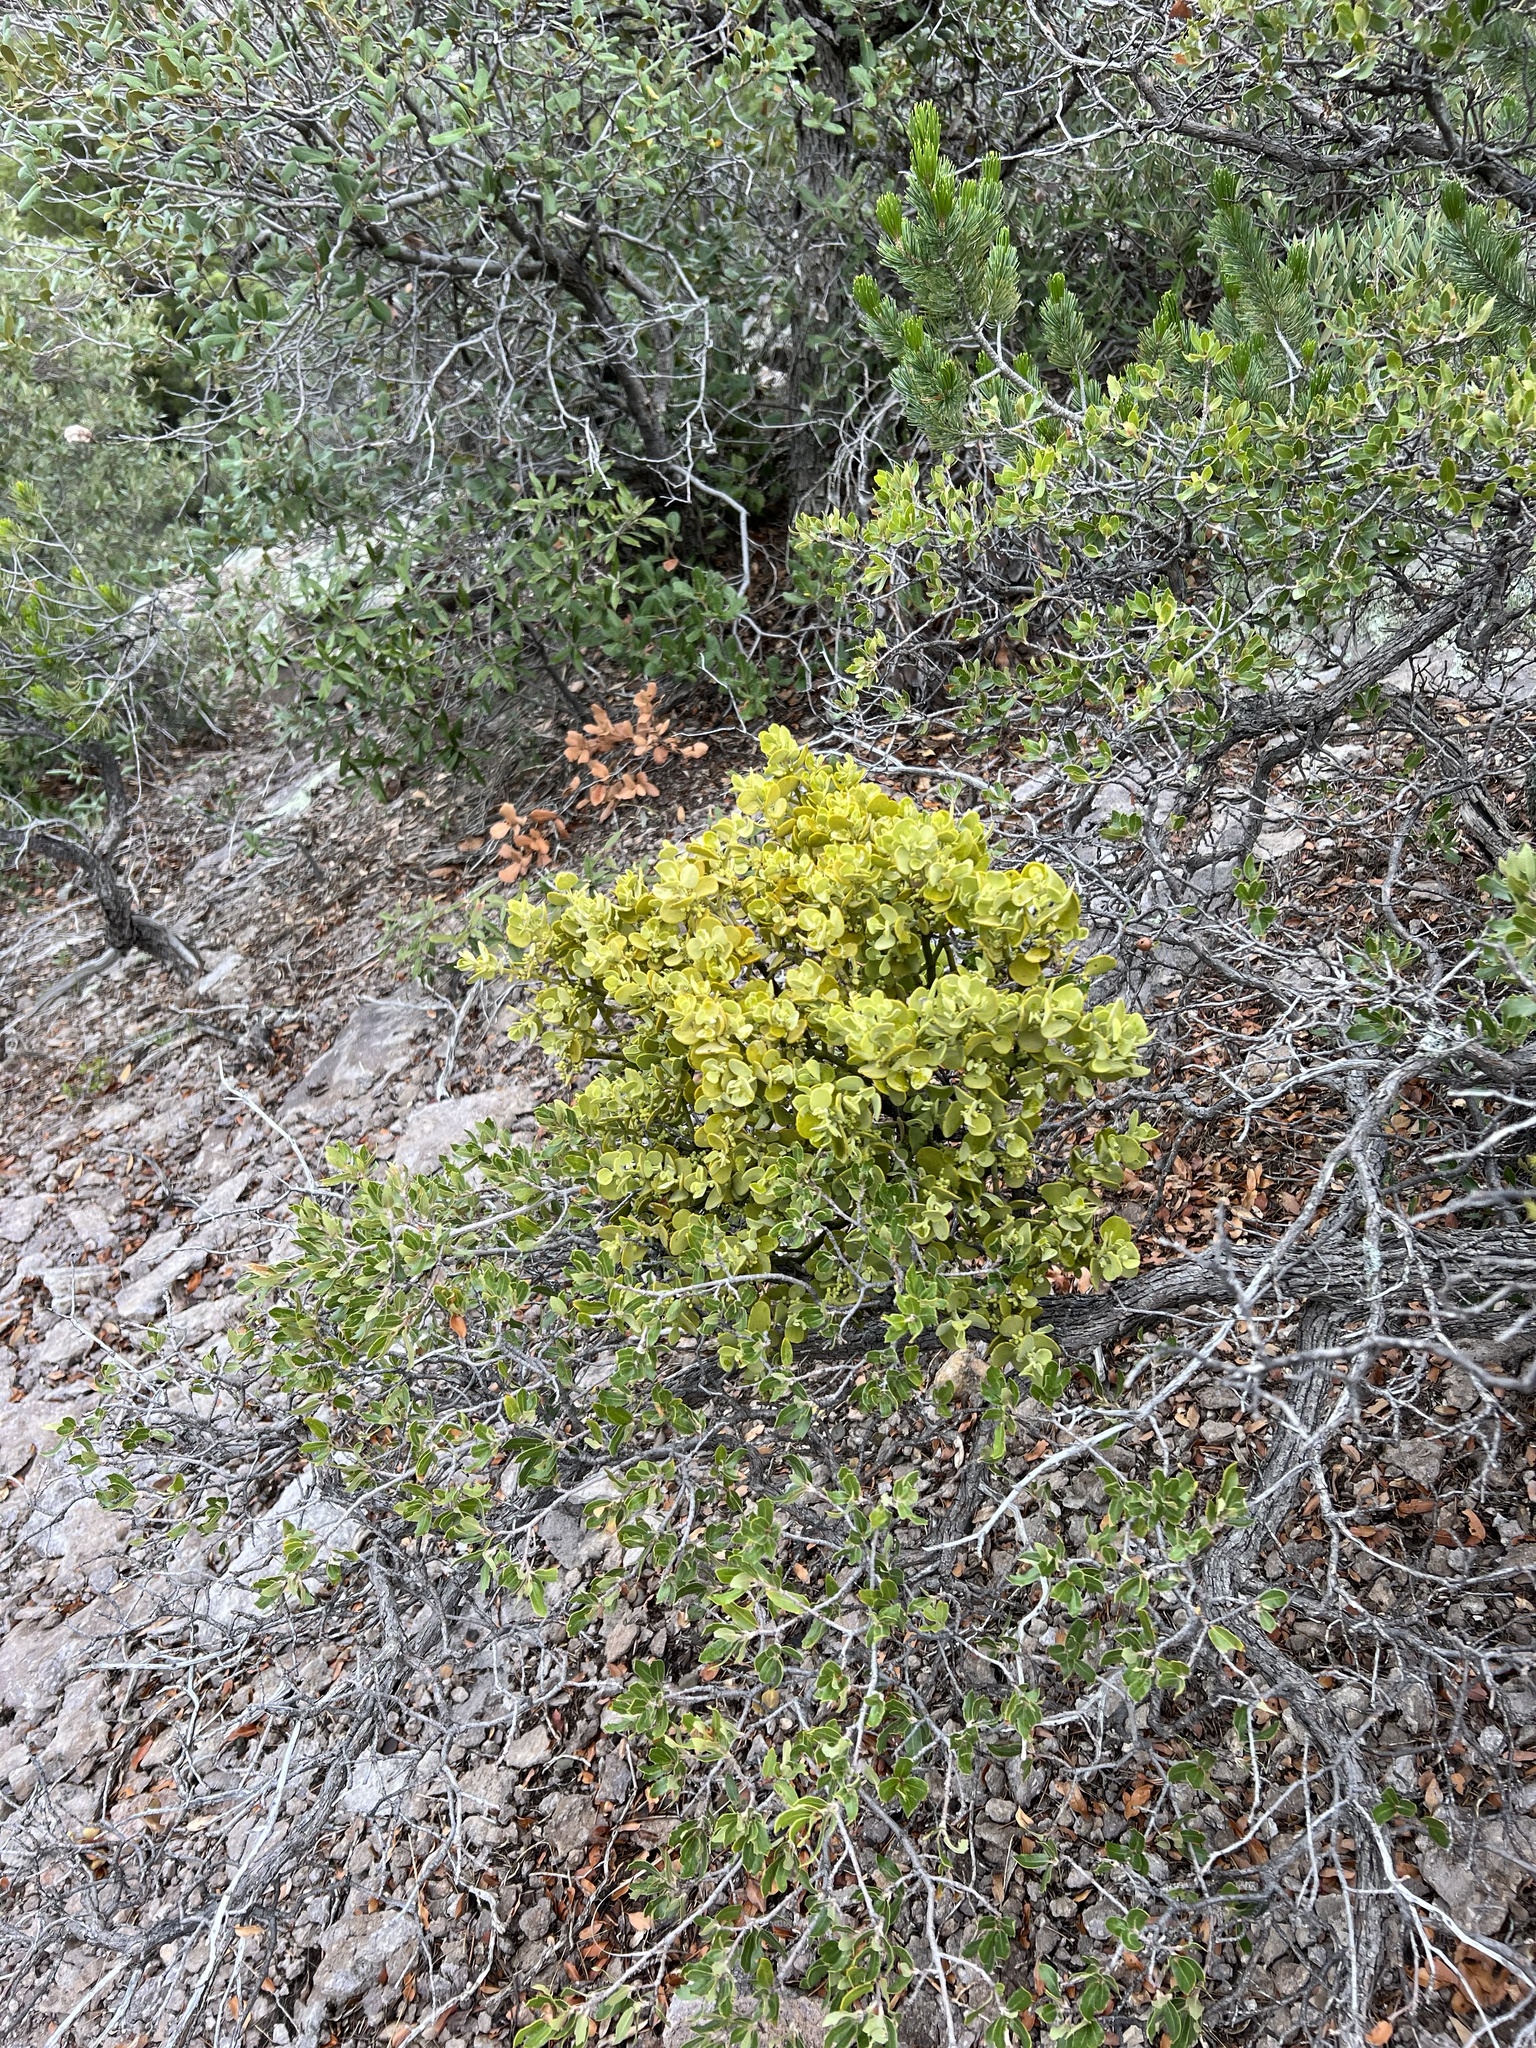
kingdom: Plantae
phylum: Tracheophyta
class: Magnoliopsida
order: Santalales
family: Viscaceae
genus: Phoradendron
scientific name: Phoradendron coryae
